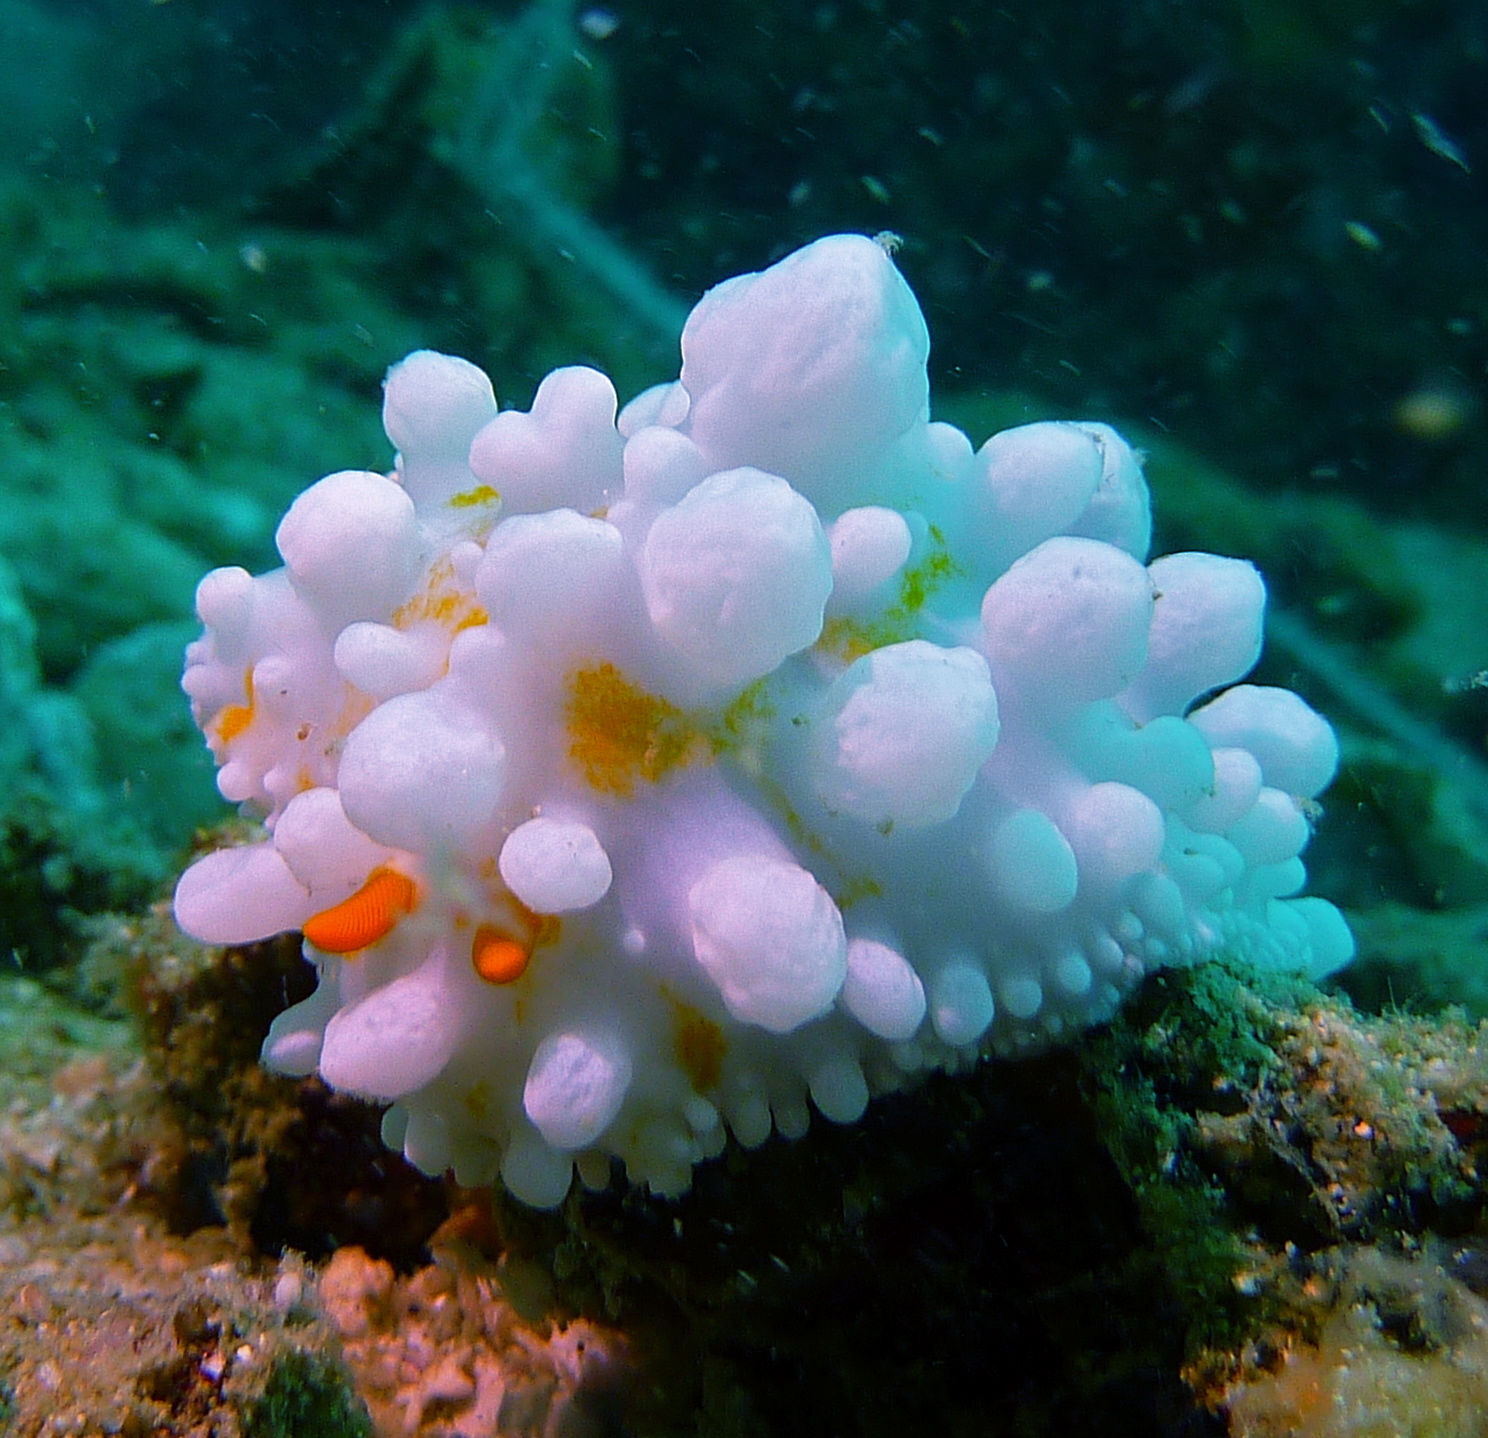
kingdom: Animalia
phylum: Mollusca
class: Gastropoda
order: Nudibranchia
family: Phyllidiidae
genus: Phyllidia
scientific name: Phyllidia ocellata
